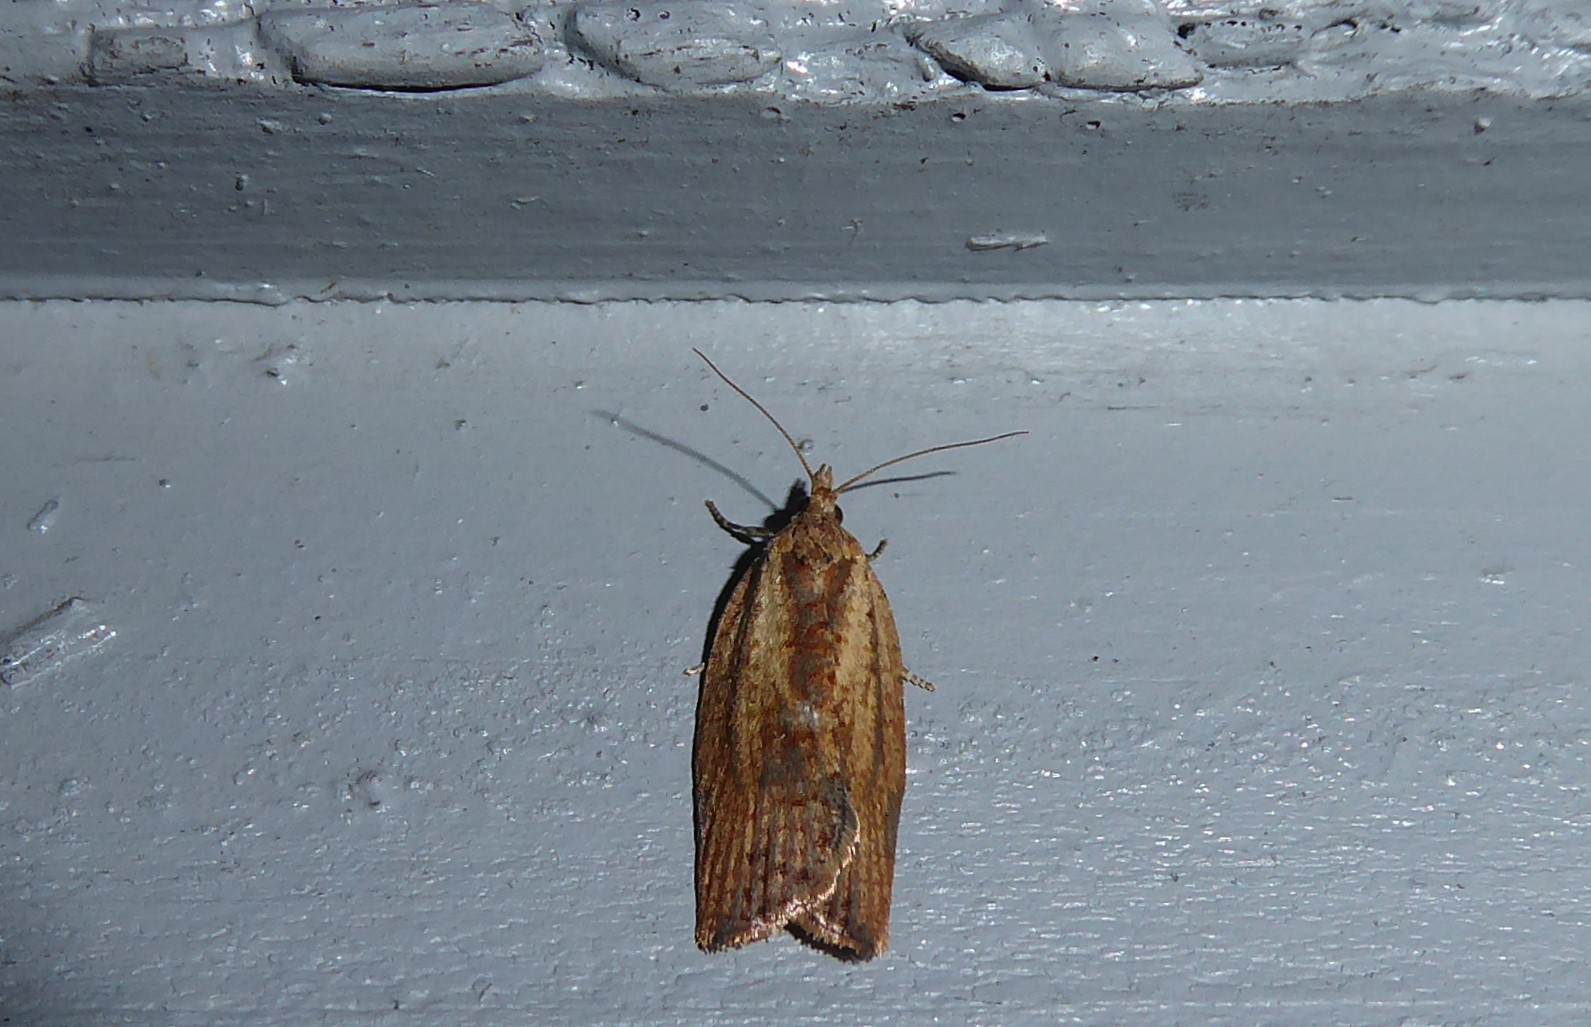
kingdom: Animalia
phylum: Arthropoda
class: Insecta
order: Lepidoptera
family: Tortricidae
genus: Epiphyas
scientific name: Epiphyas postvittana
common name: Light brown apple moth
